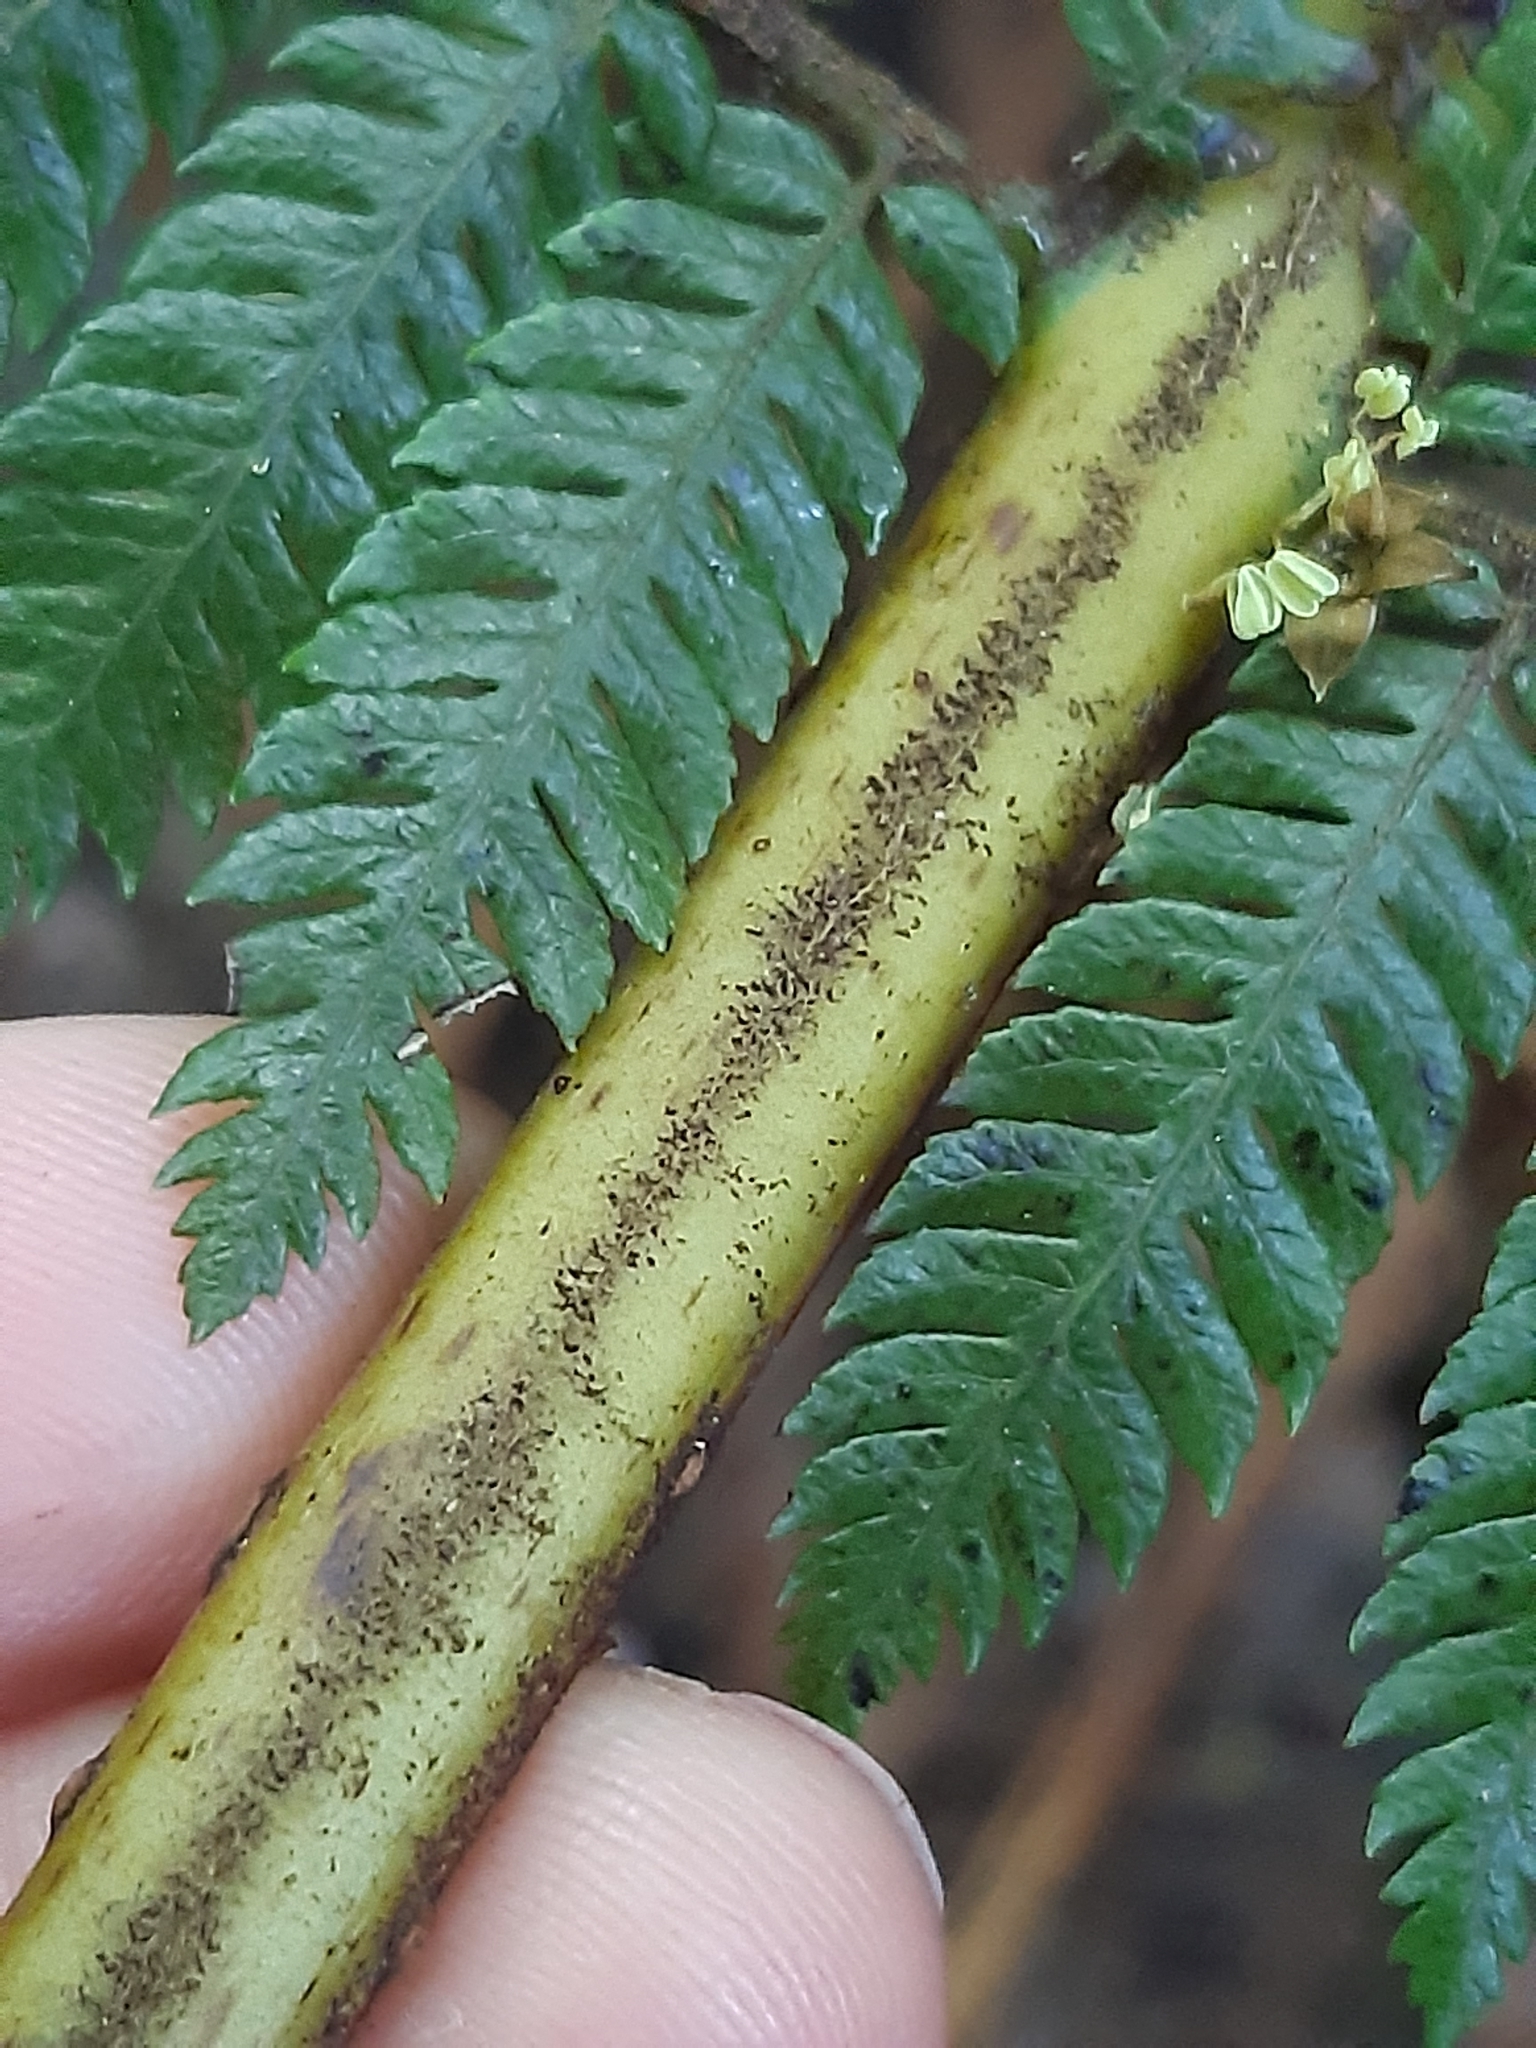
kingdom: Plantae
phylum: Tracheophyta
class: Polypodiopsida
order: Cyatheales
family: Cyatheaceae
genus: Alsophila
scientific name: Alsophila smithii
